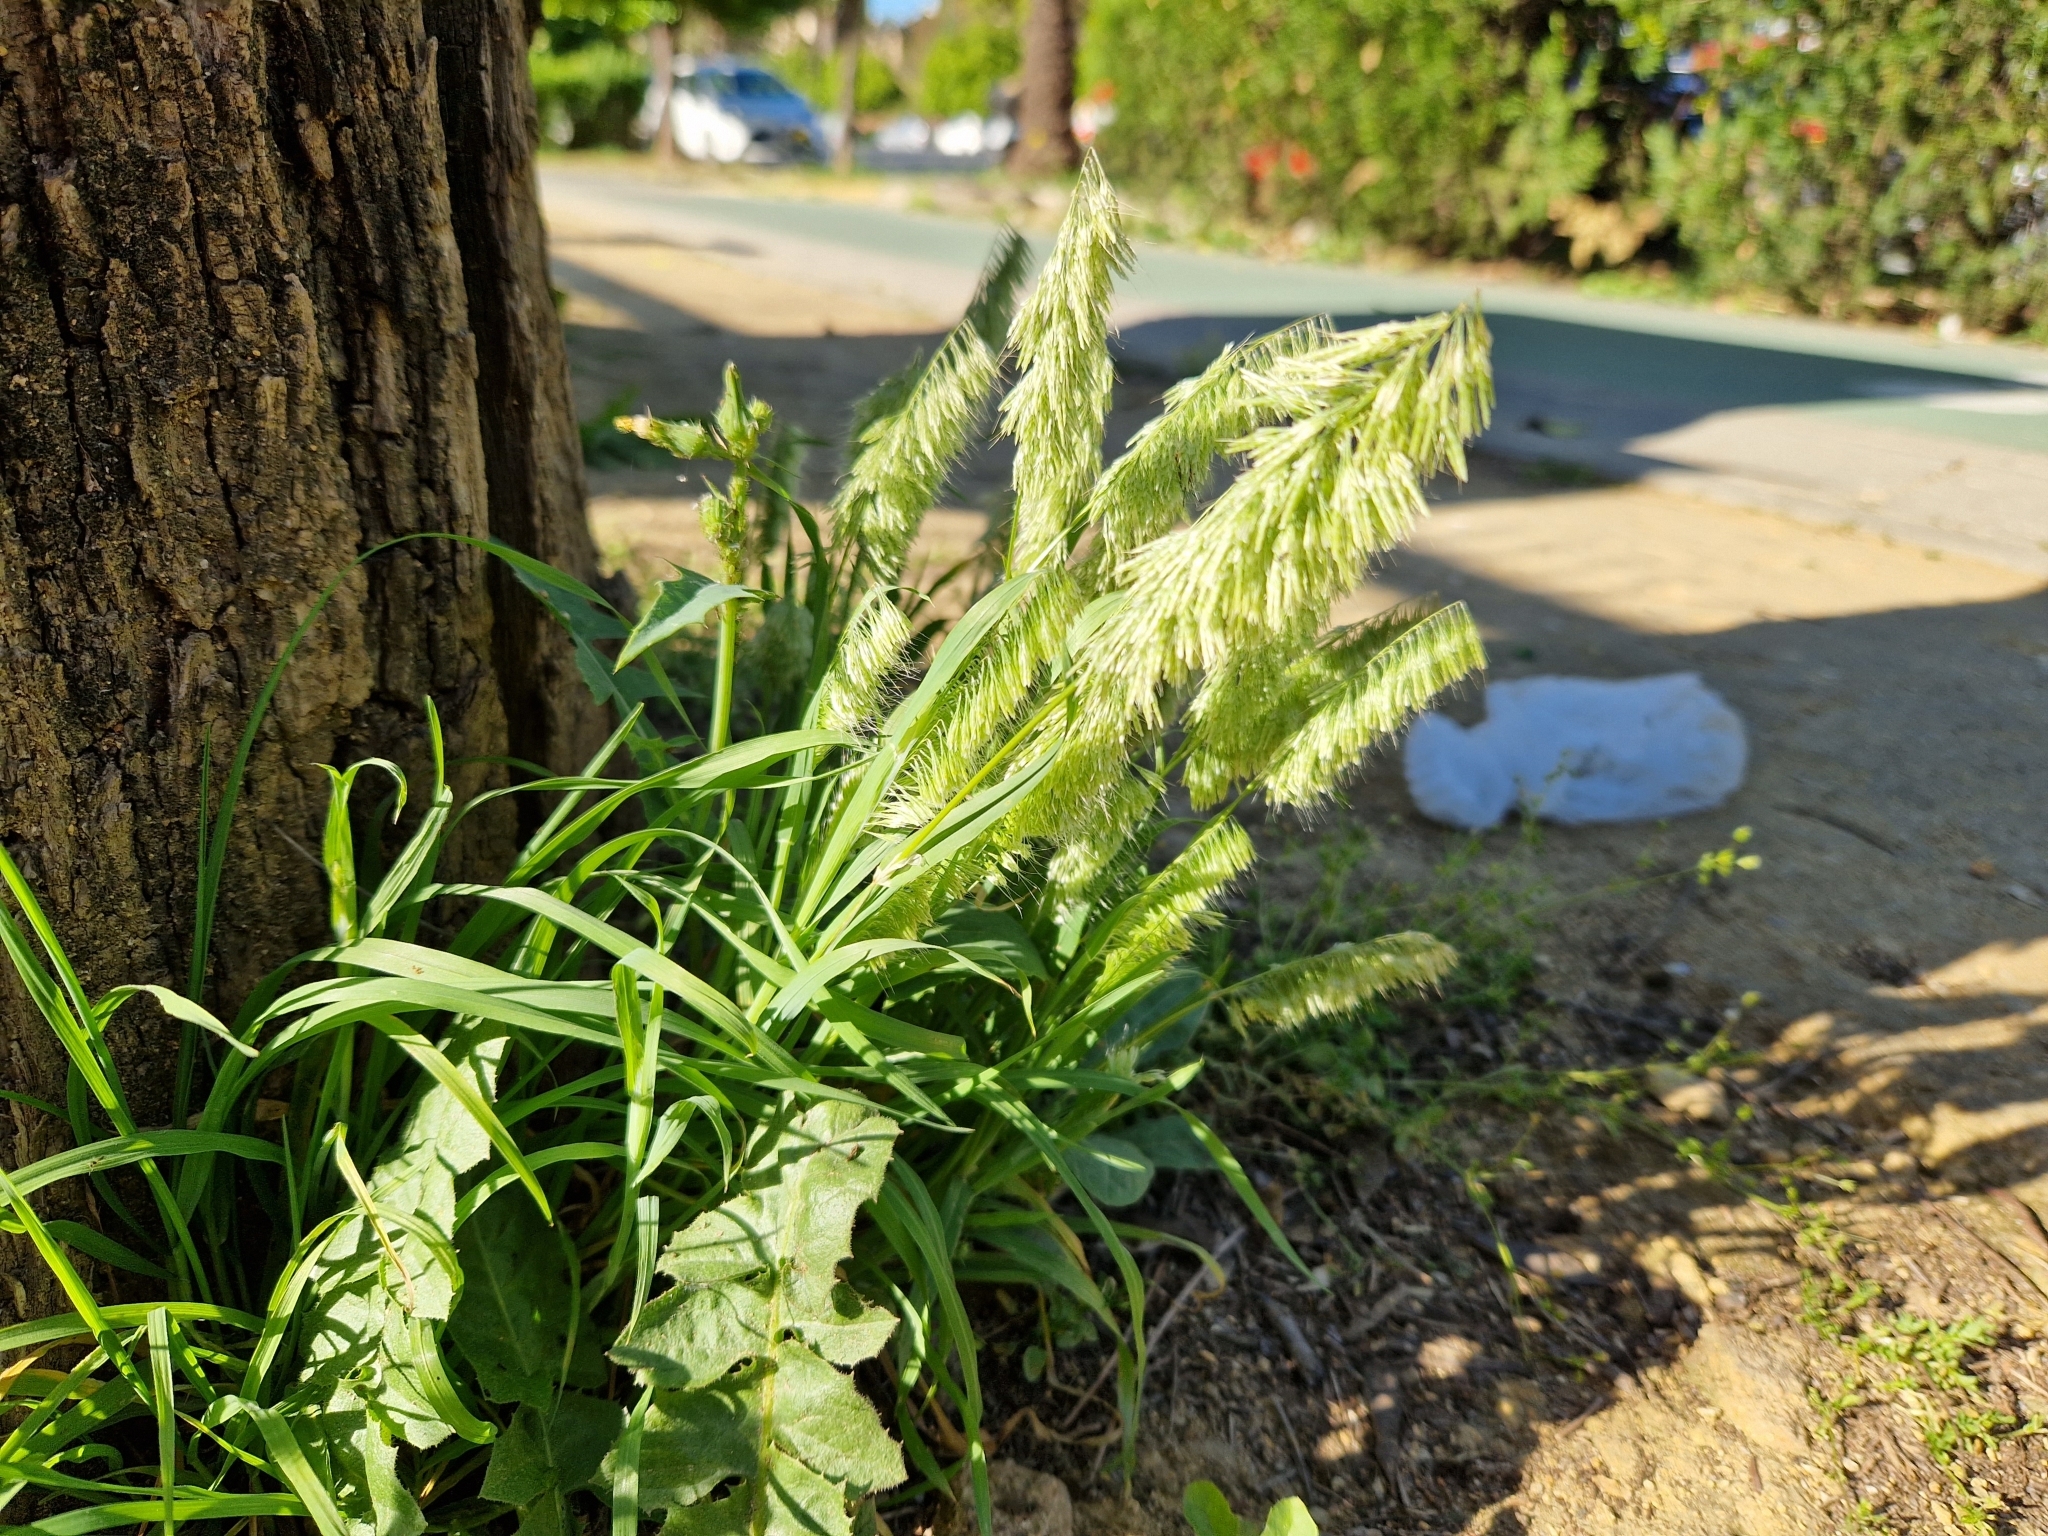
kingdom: Plantae
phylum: Tracheophyta
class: Liliopsida
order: Poales
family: Poaceae
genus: Lamarckia
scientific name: Lamarckia aurea
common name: Golden dog's-tail
